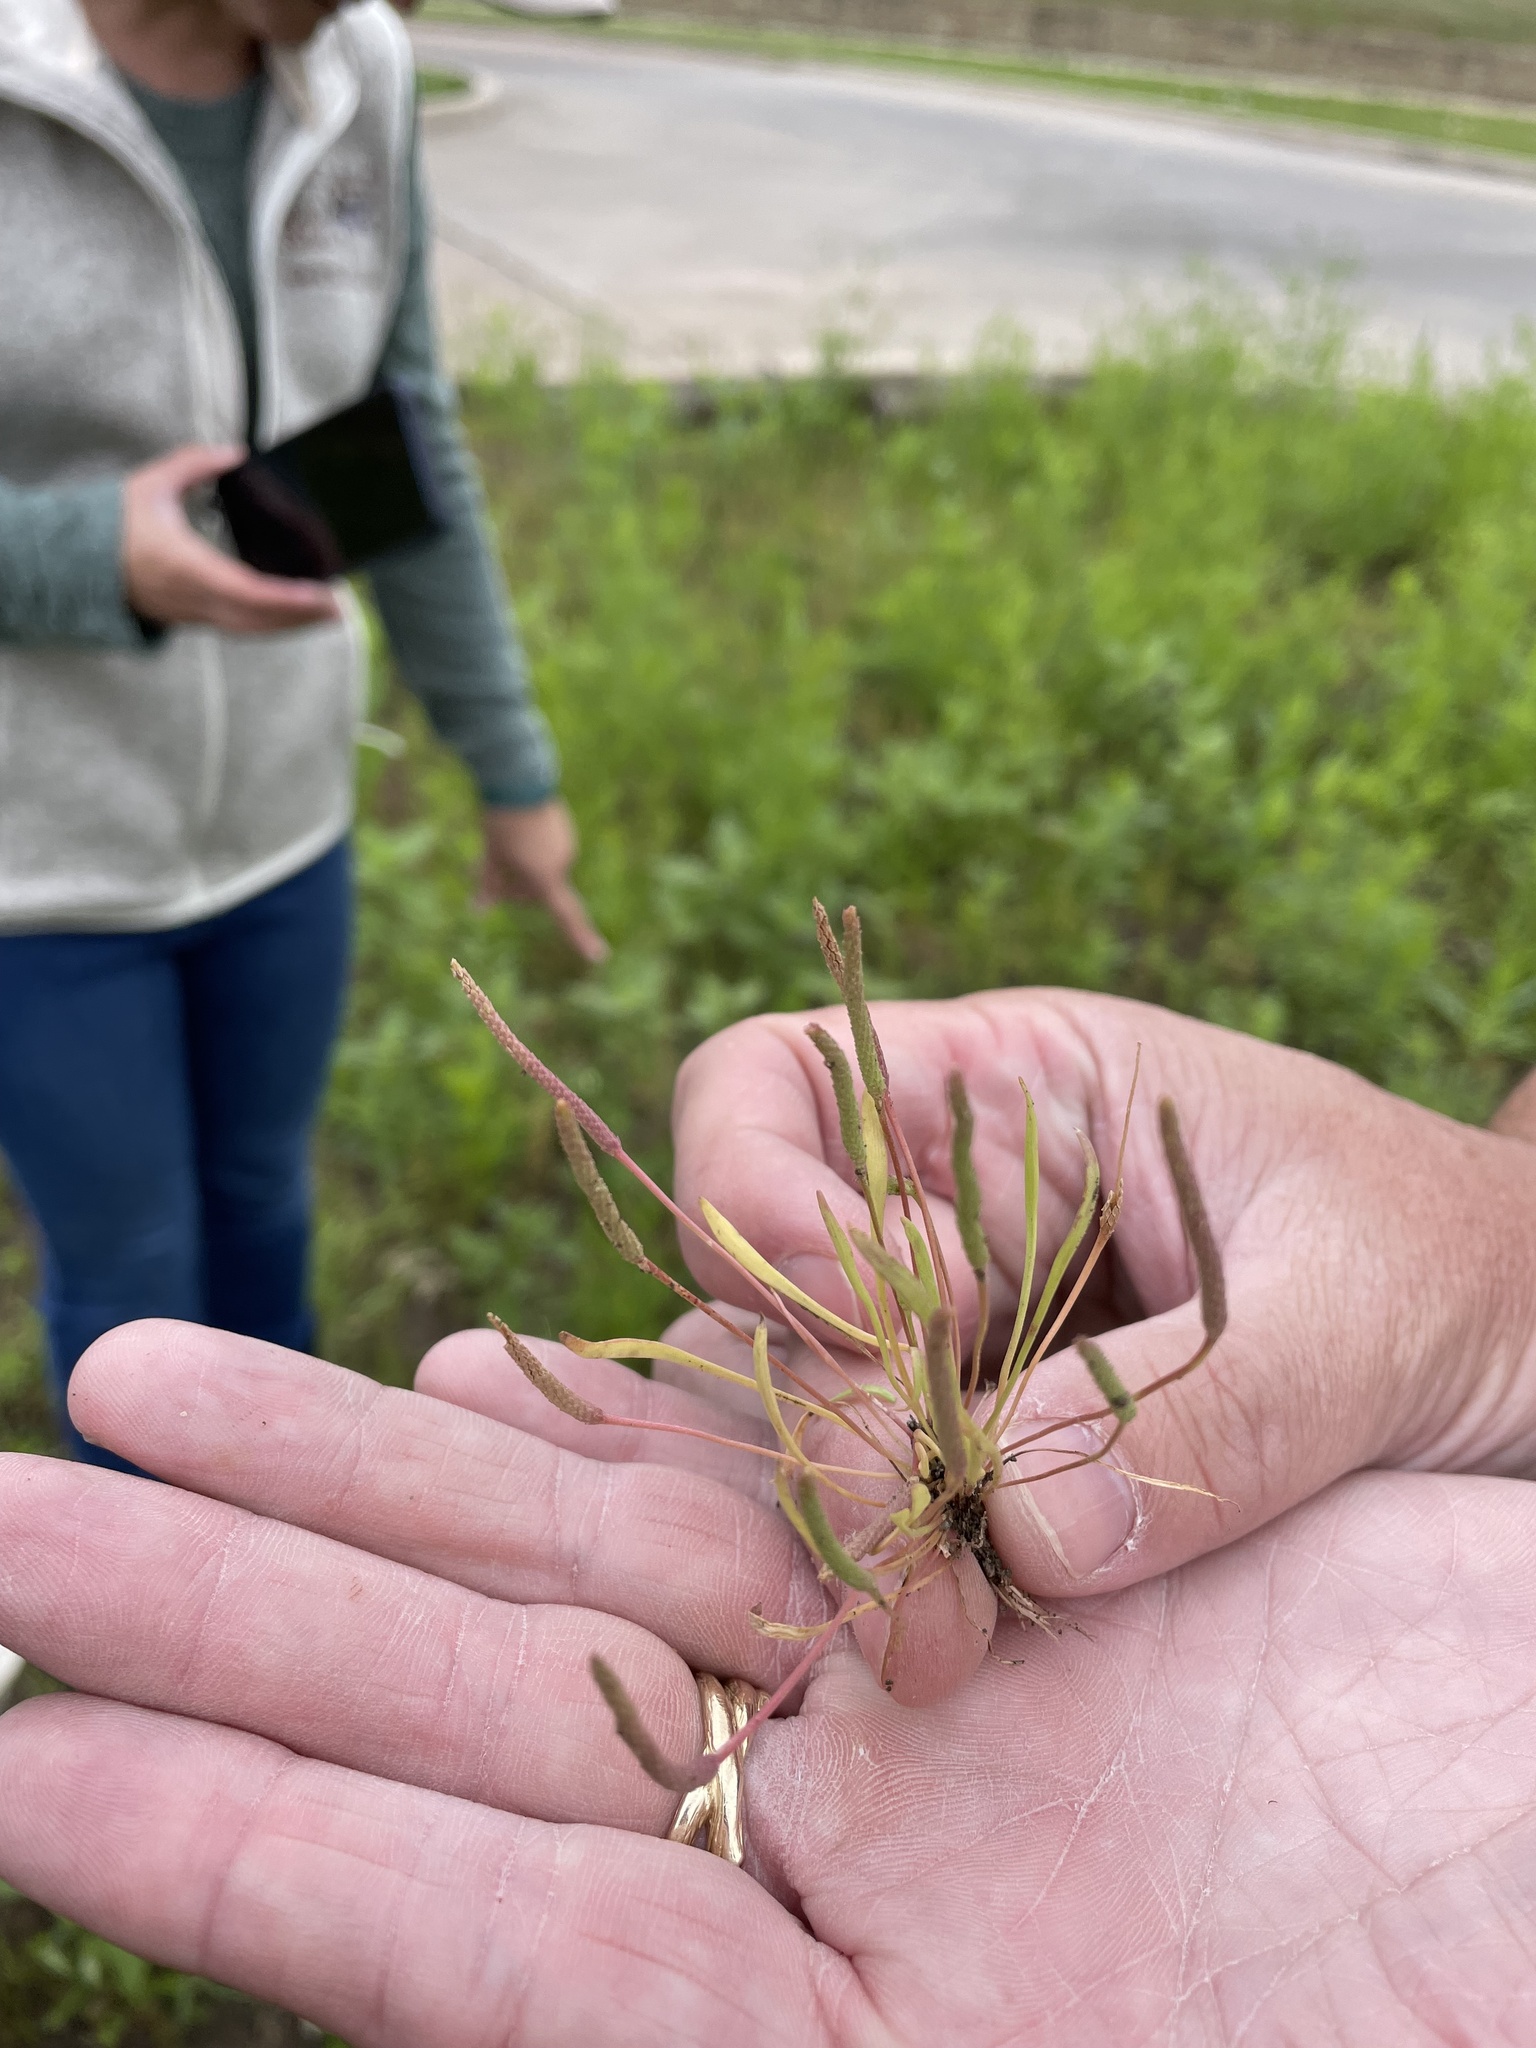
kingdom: Plantae
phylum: Tracheophyta
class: Magnoliopsida
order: Ranunculales
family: Ranunculaceae
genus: Myosurus
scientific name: Myosurus minimus
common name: Mousetail
